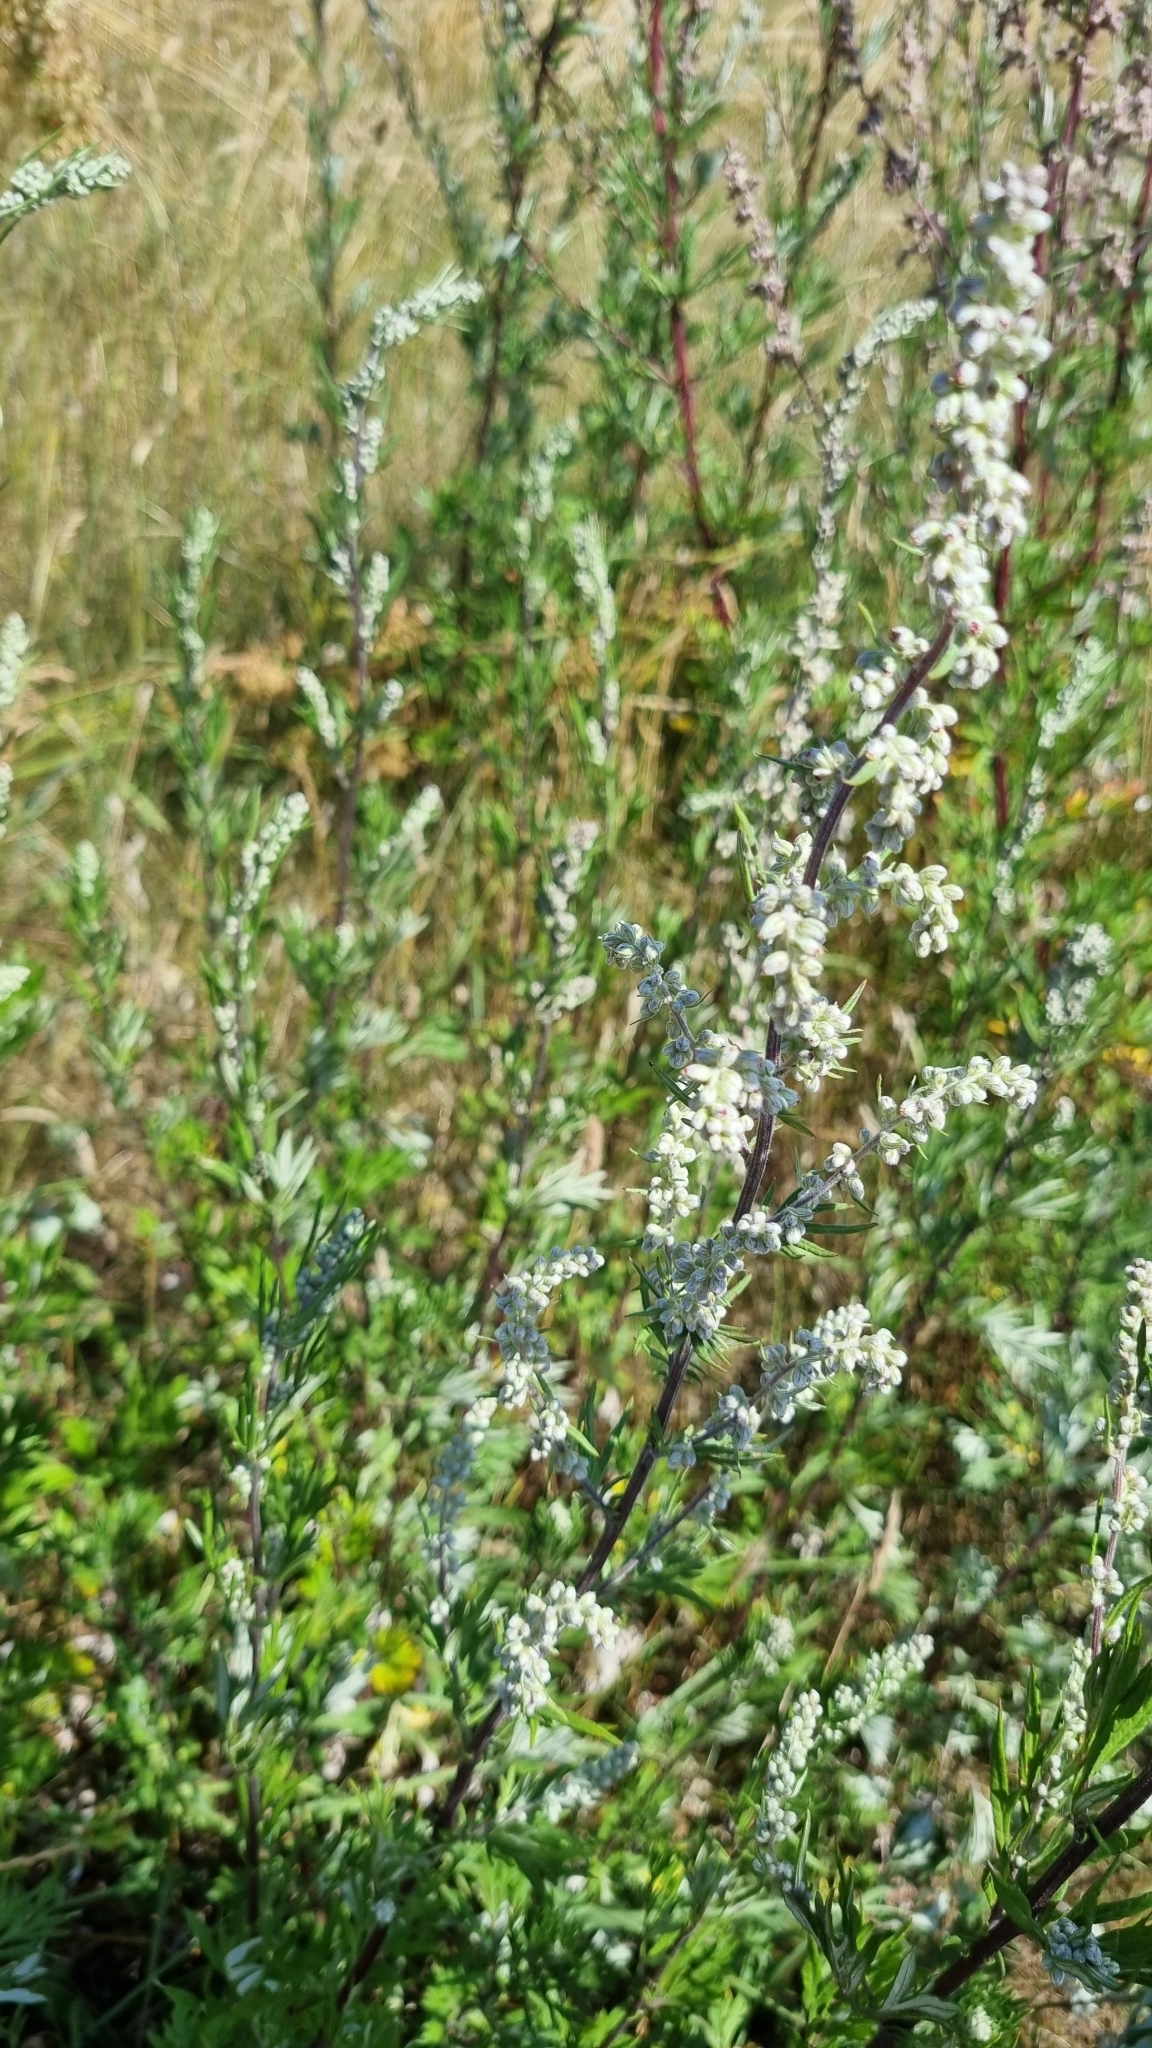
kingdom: Plantae
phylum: Tracheophyta
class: Magnoliopsida
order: Asterales
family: Asteraceae
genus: Artemisia
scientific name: Artemisia vulgaris
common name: Mugwort
